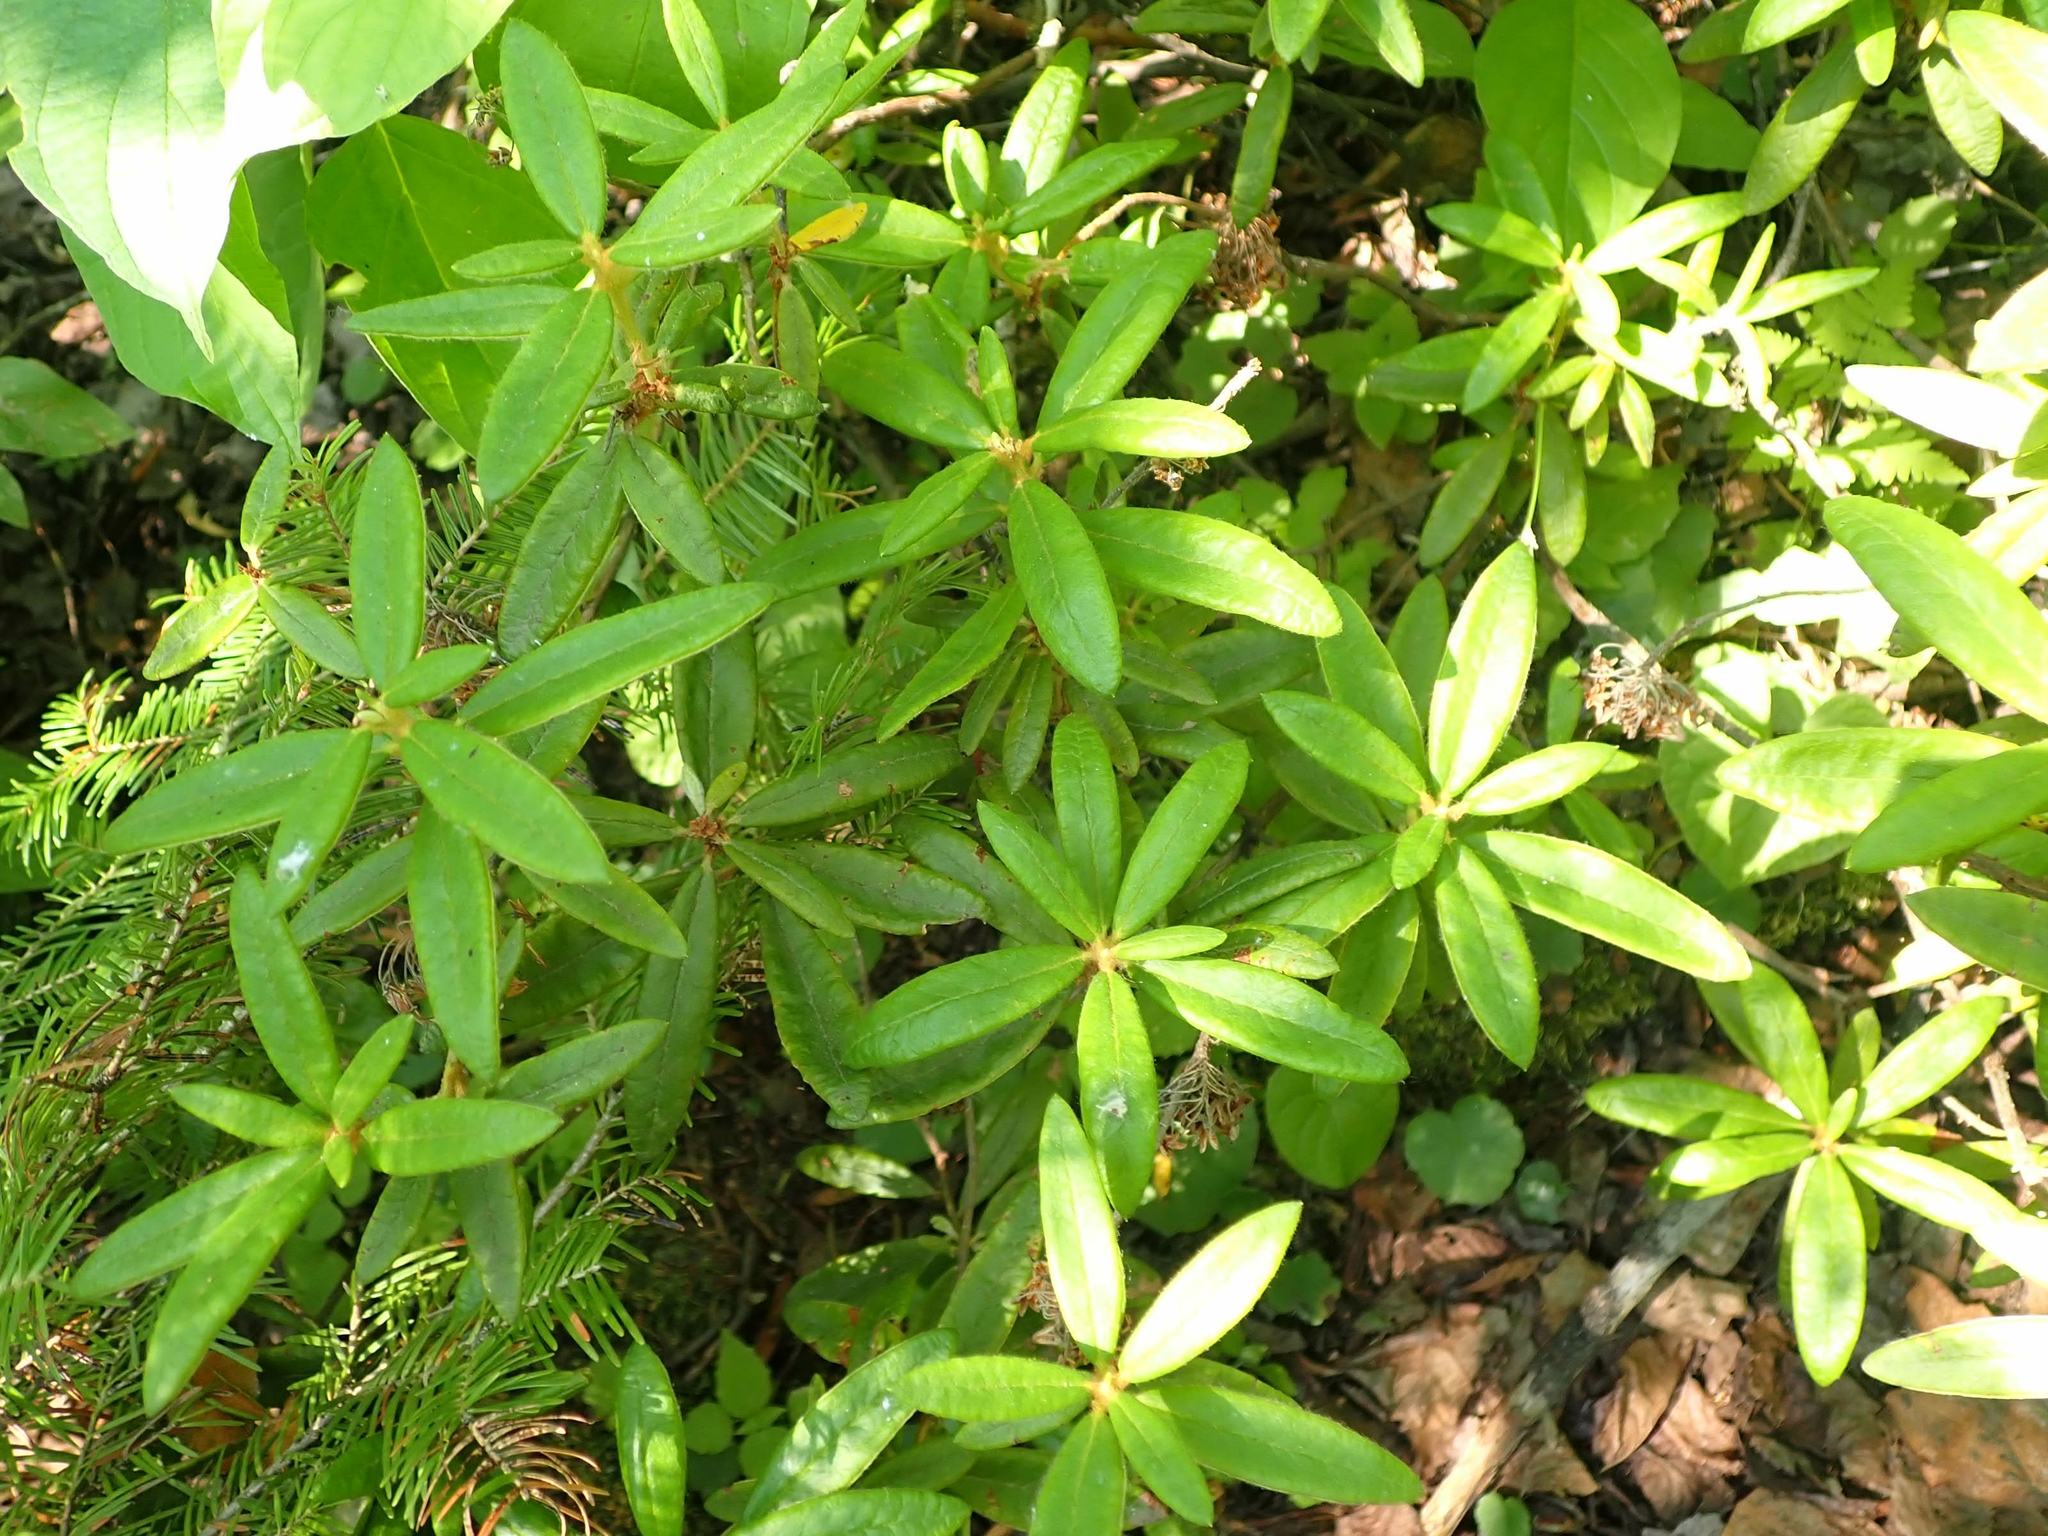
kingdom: Plantae
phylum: Tracheophyta
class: Magnoliopsida
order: Ericales
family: Ericaceae
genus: Rhododendron
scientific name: Rhododendron groenlandicum
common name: Bog labrador tea
